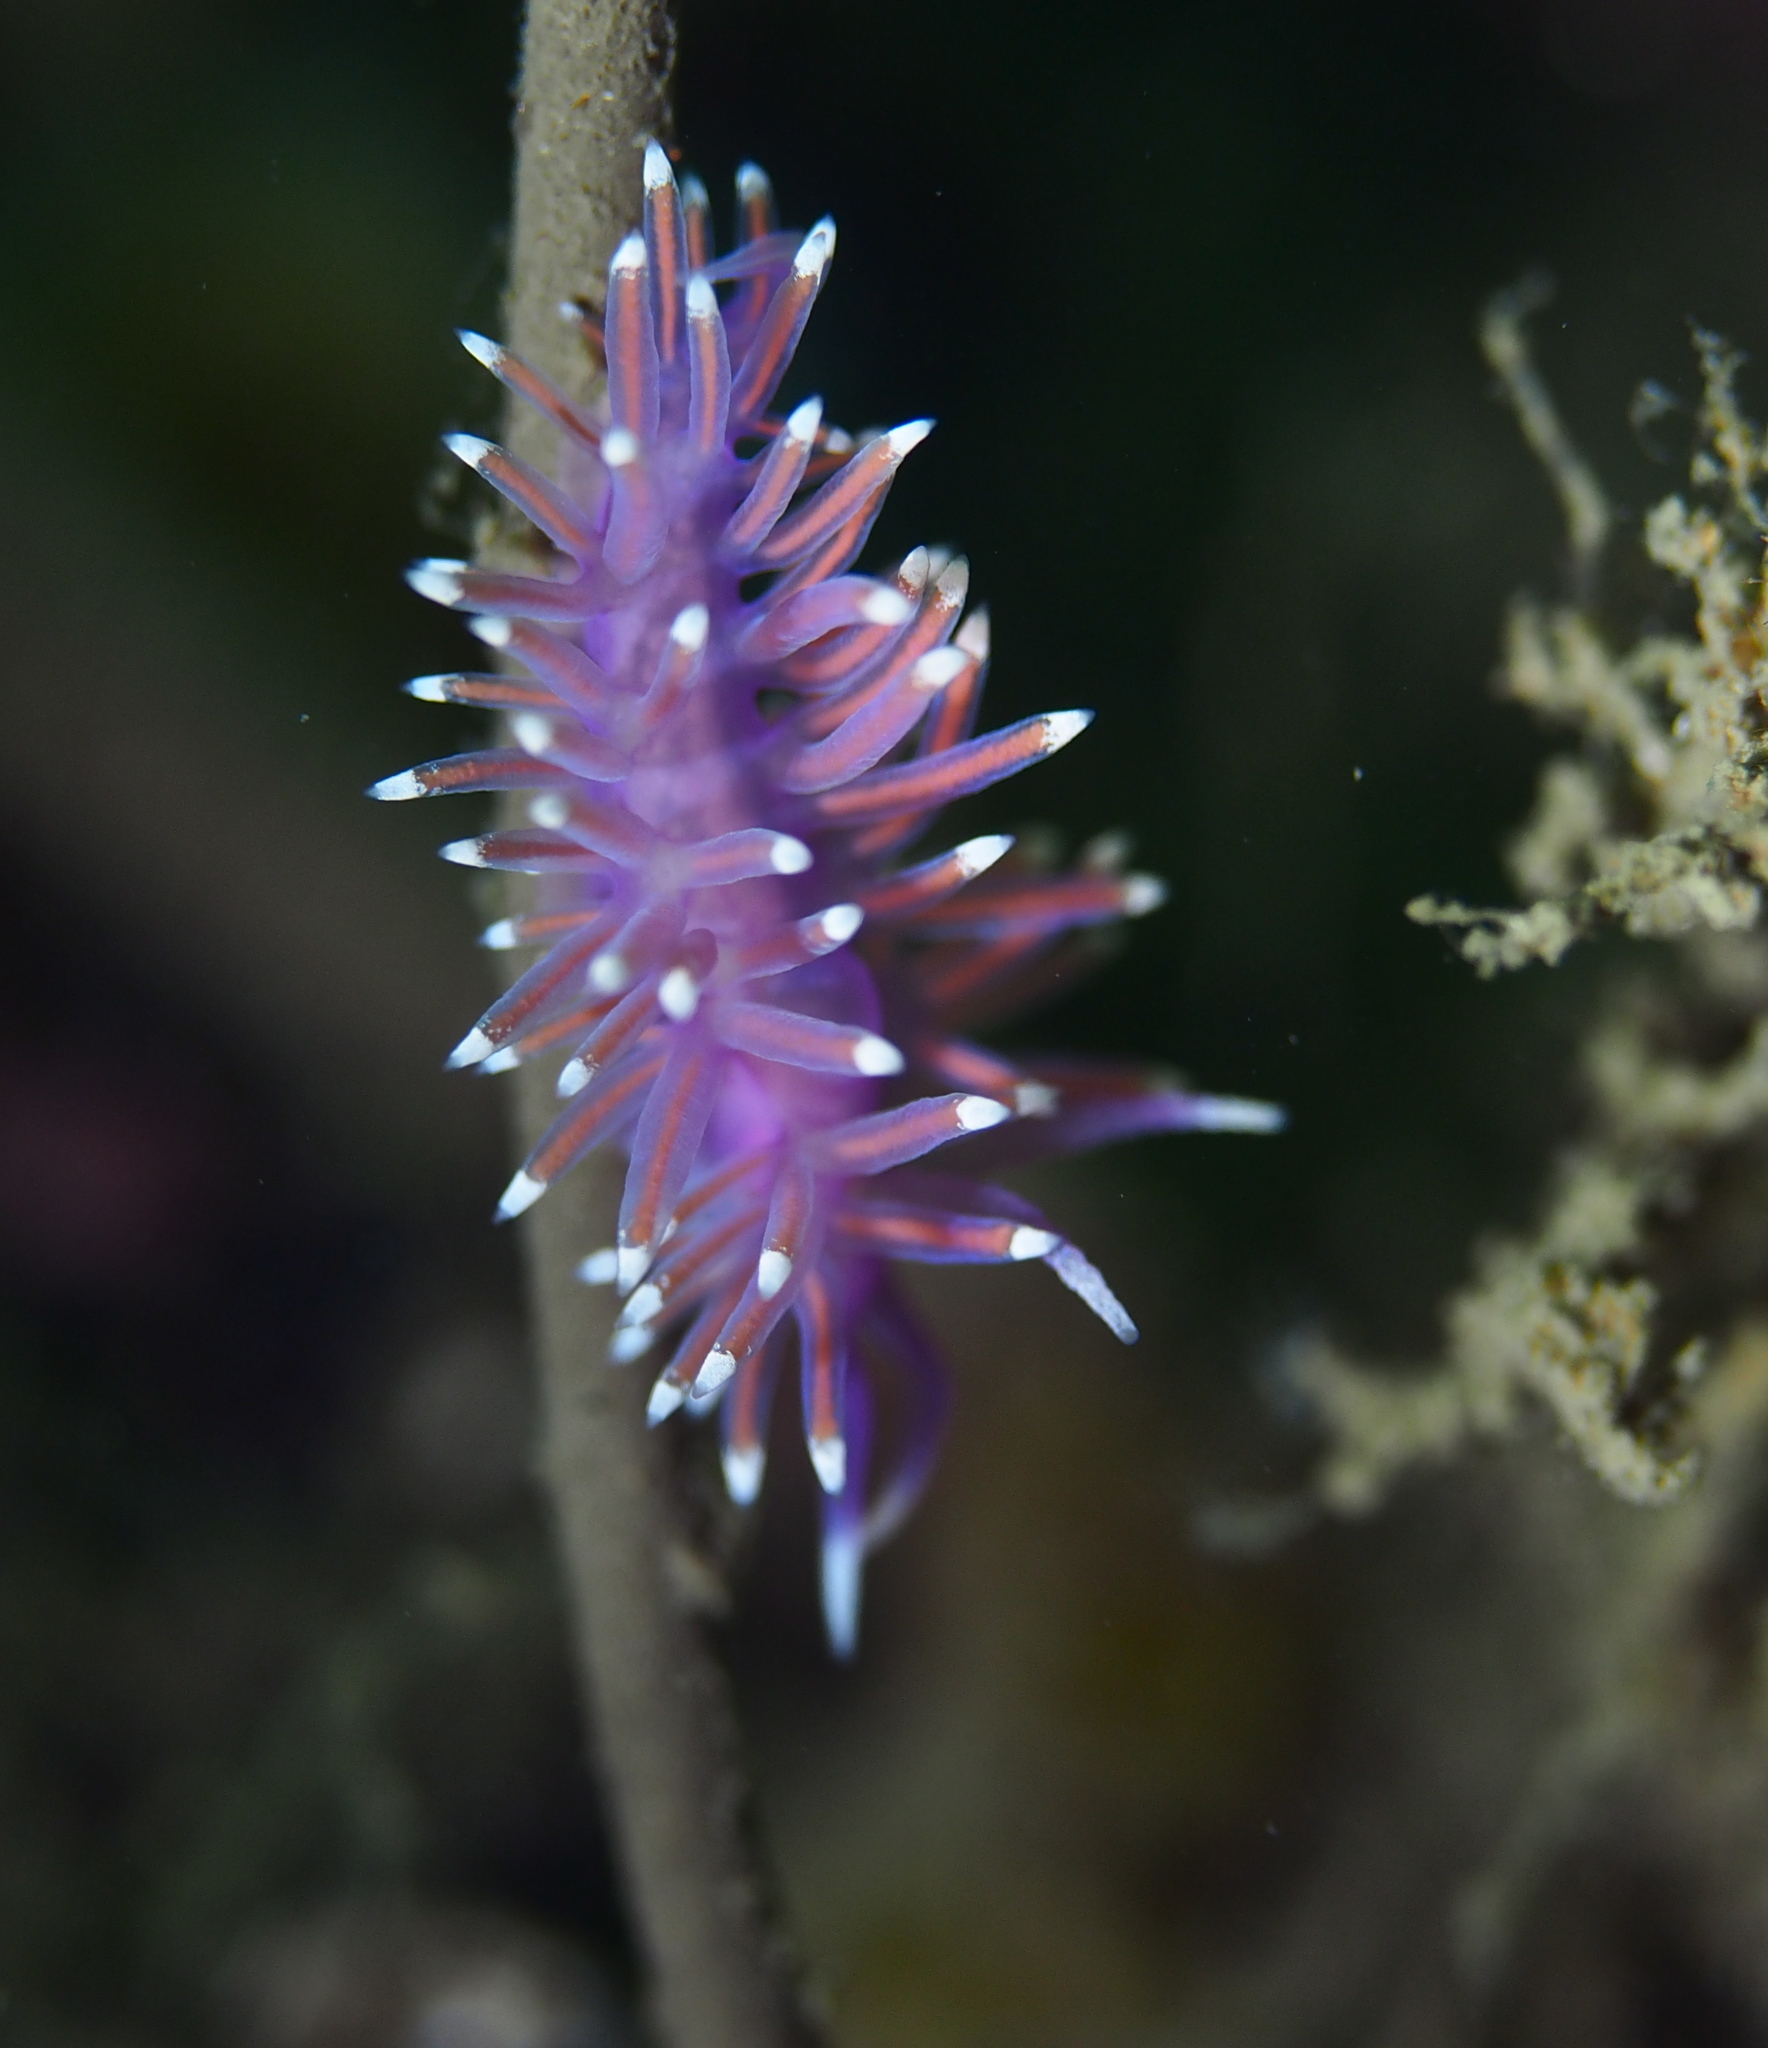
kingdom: Animalia
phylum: Mollusca
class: Gastropoda
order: Nudibranchia
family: Flabellinidae
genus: Edmundsella
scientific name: Edmundsella pedata
